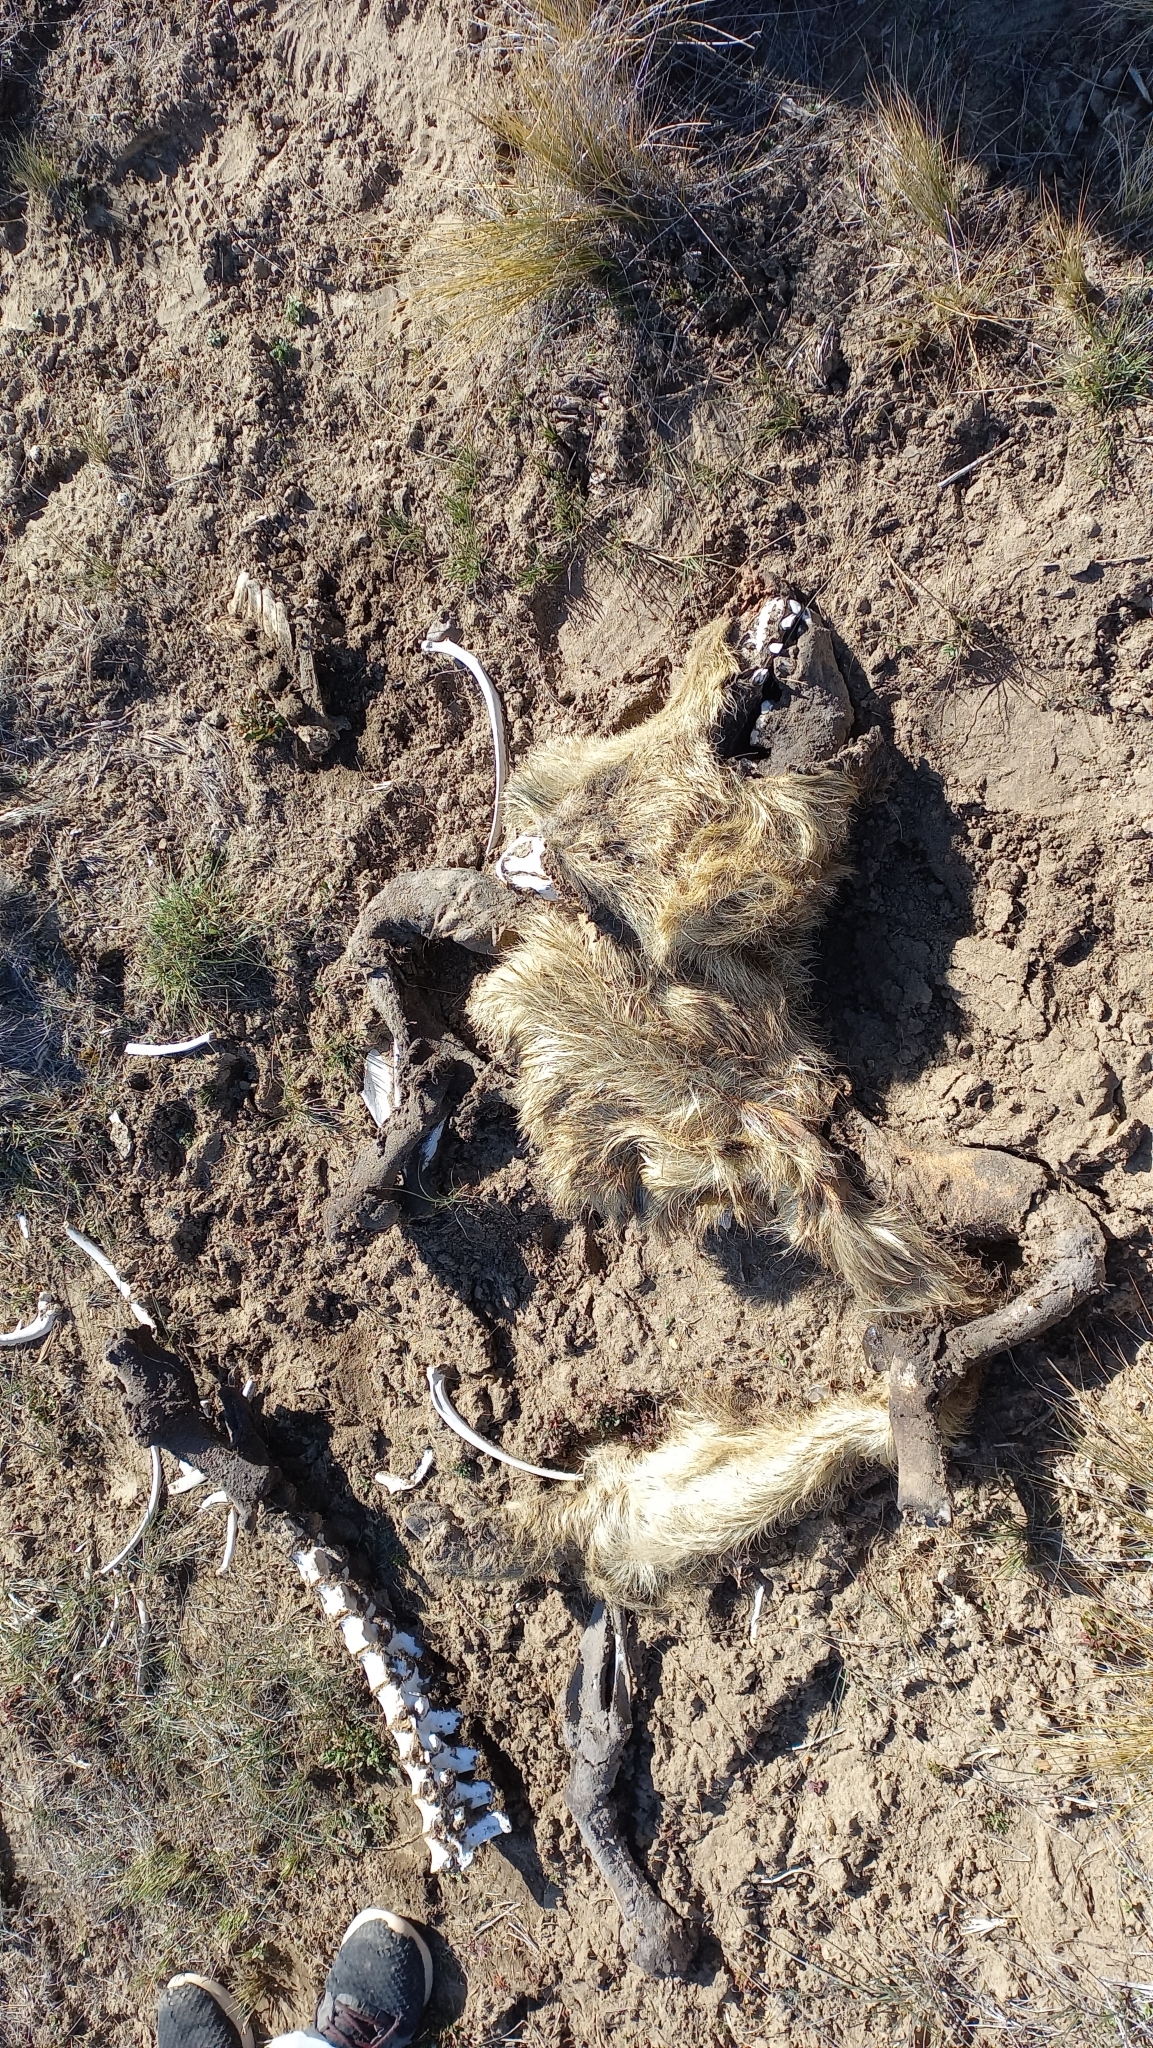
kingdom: Animalia
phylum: Chordata
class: Mammalia
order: Artiodactyla
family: Suidae
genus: Sus
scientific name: Sus scrofa
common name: Wild boar
